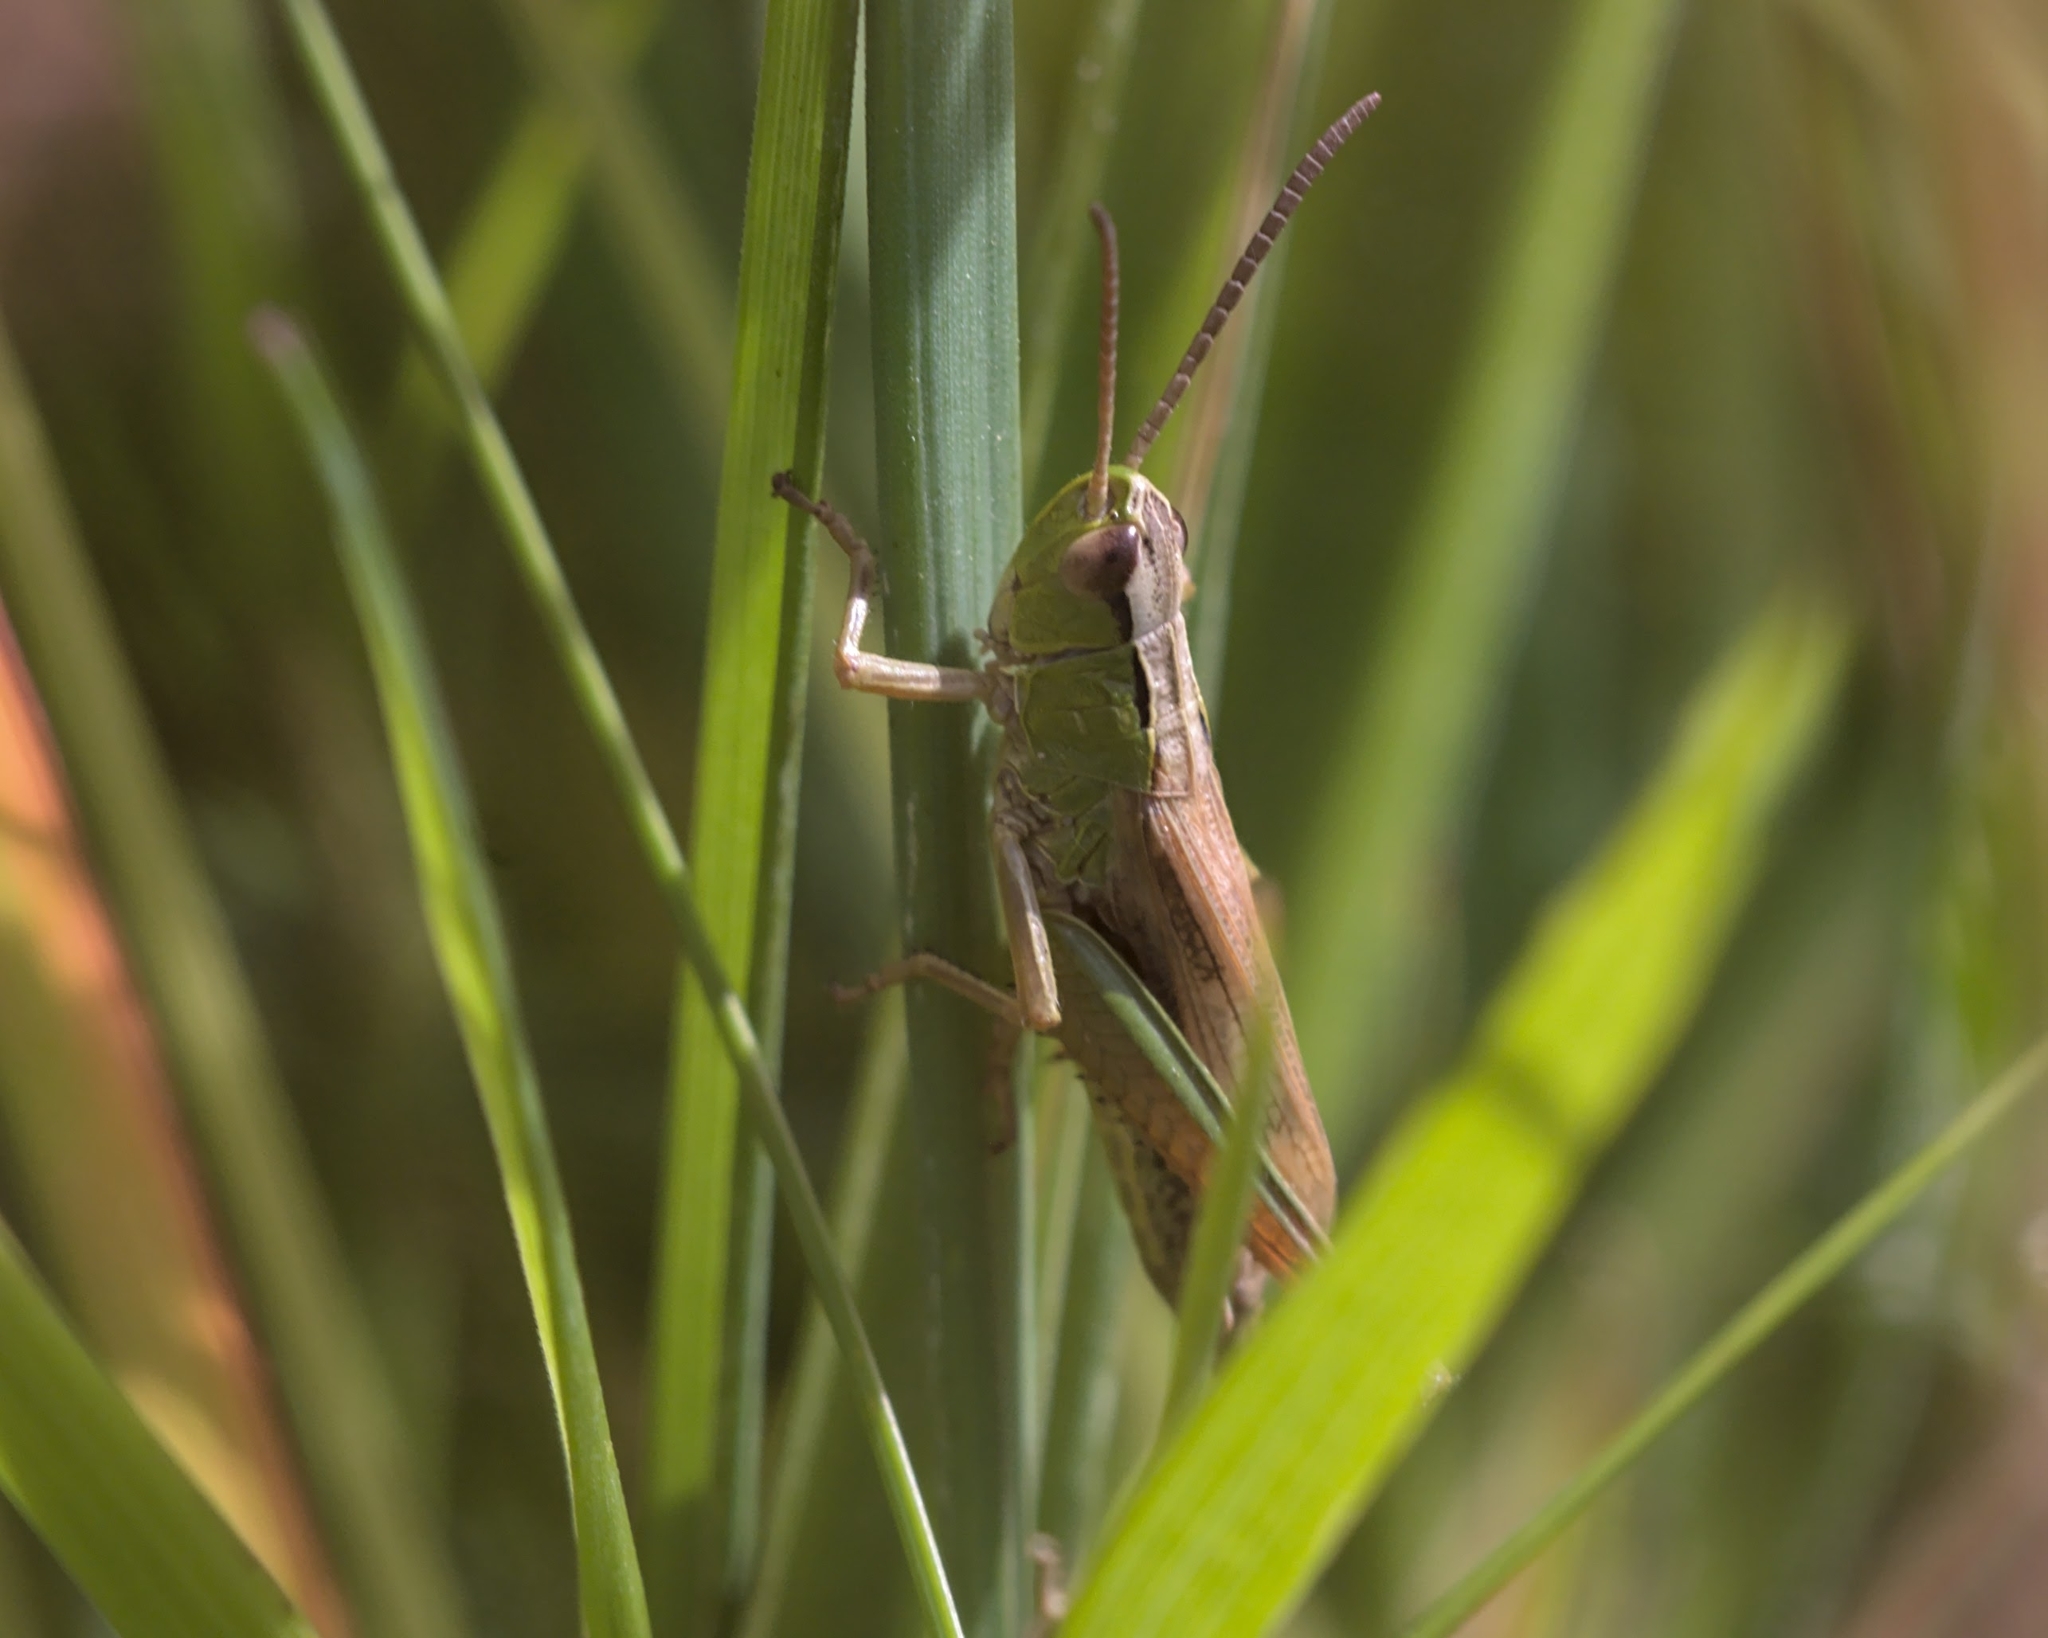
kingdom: Animalia
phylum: Arthropoda
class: Insecta
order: Orthoptera
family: Acrididae
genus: Pseudochorthippus
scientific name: Pseudochorthippus parallelus
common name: Meadow grasshopper
